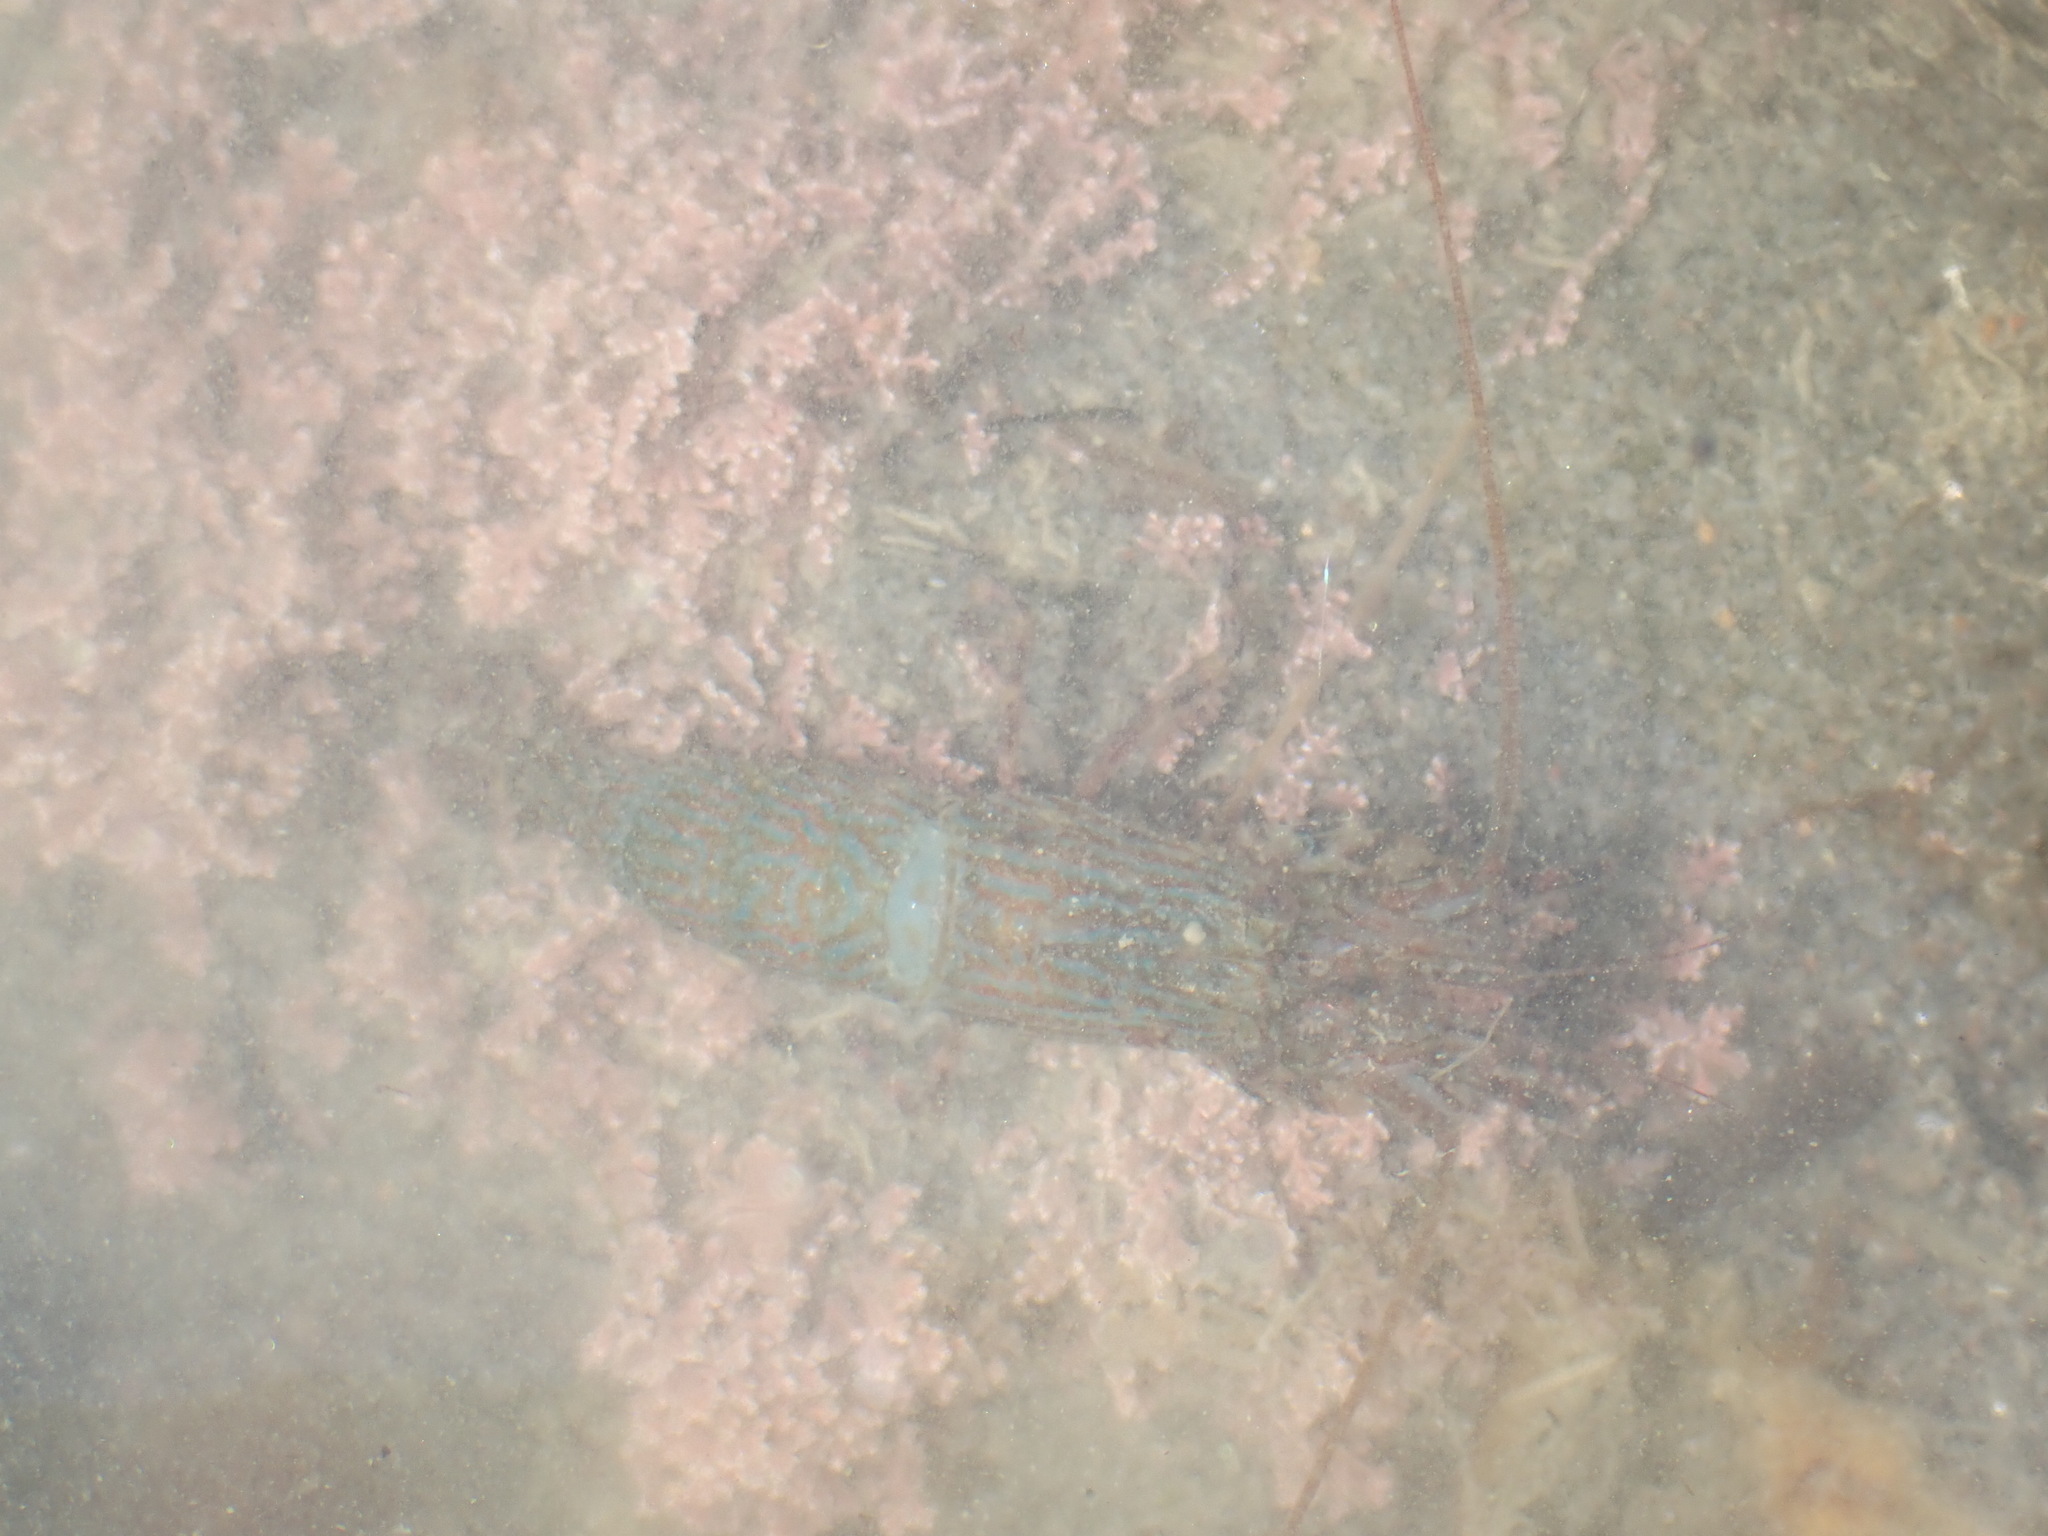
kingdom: Animalia
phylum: Arthropoda
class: Malacostraca
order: Decapoda
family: Hippolytidae
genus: Alope
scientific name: Alope spinifrons
